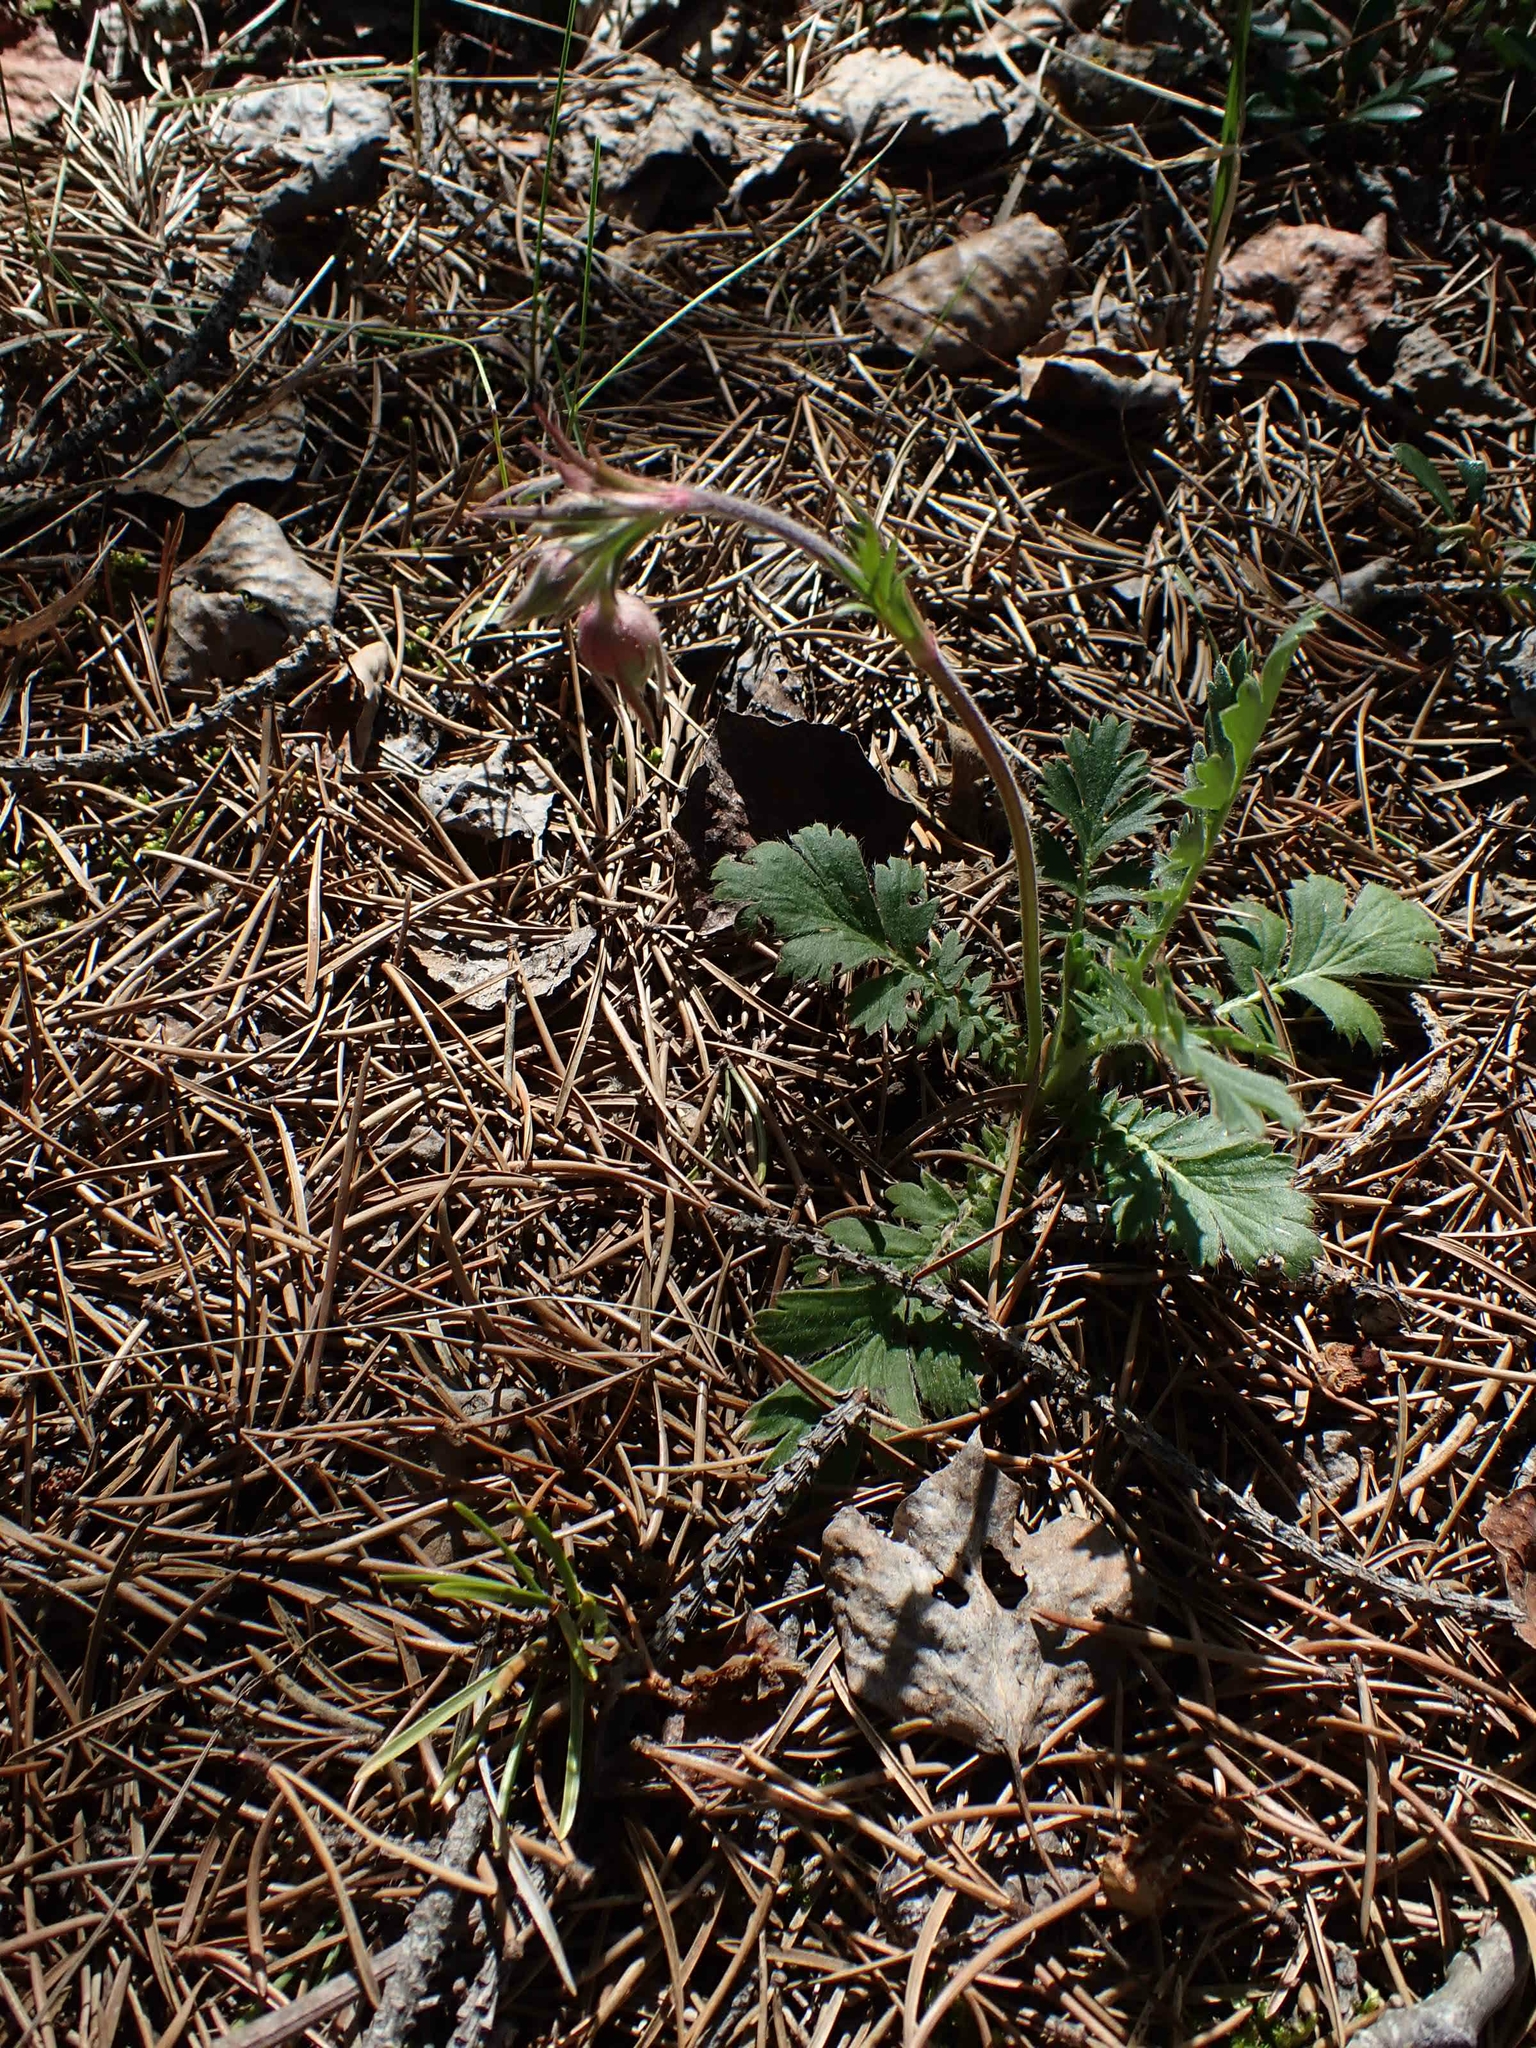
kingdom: Plantae
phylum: Tracheophyta
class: Magnoliopsida
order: Rosales
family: Rosaceae
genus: Geum
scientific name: Geum triflorum
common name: Old man's whiskers
